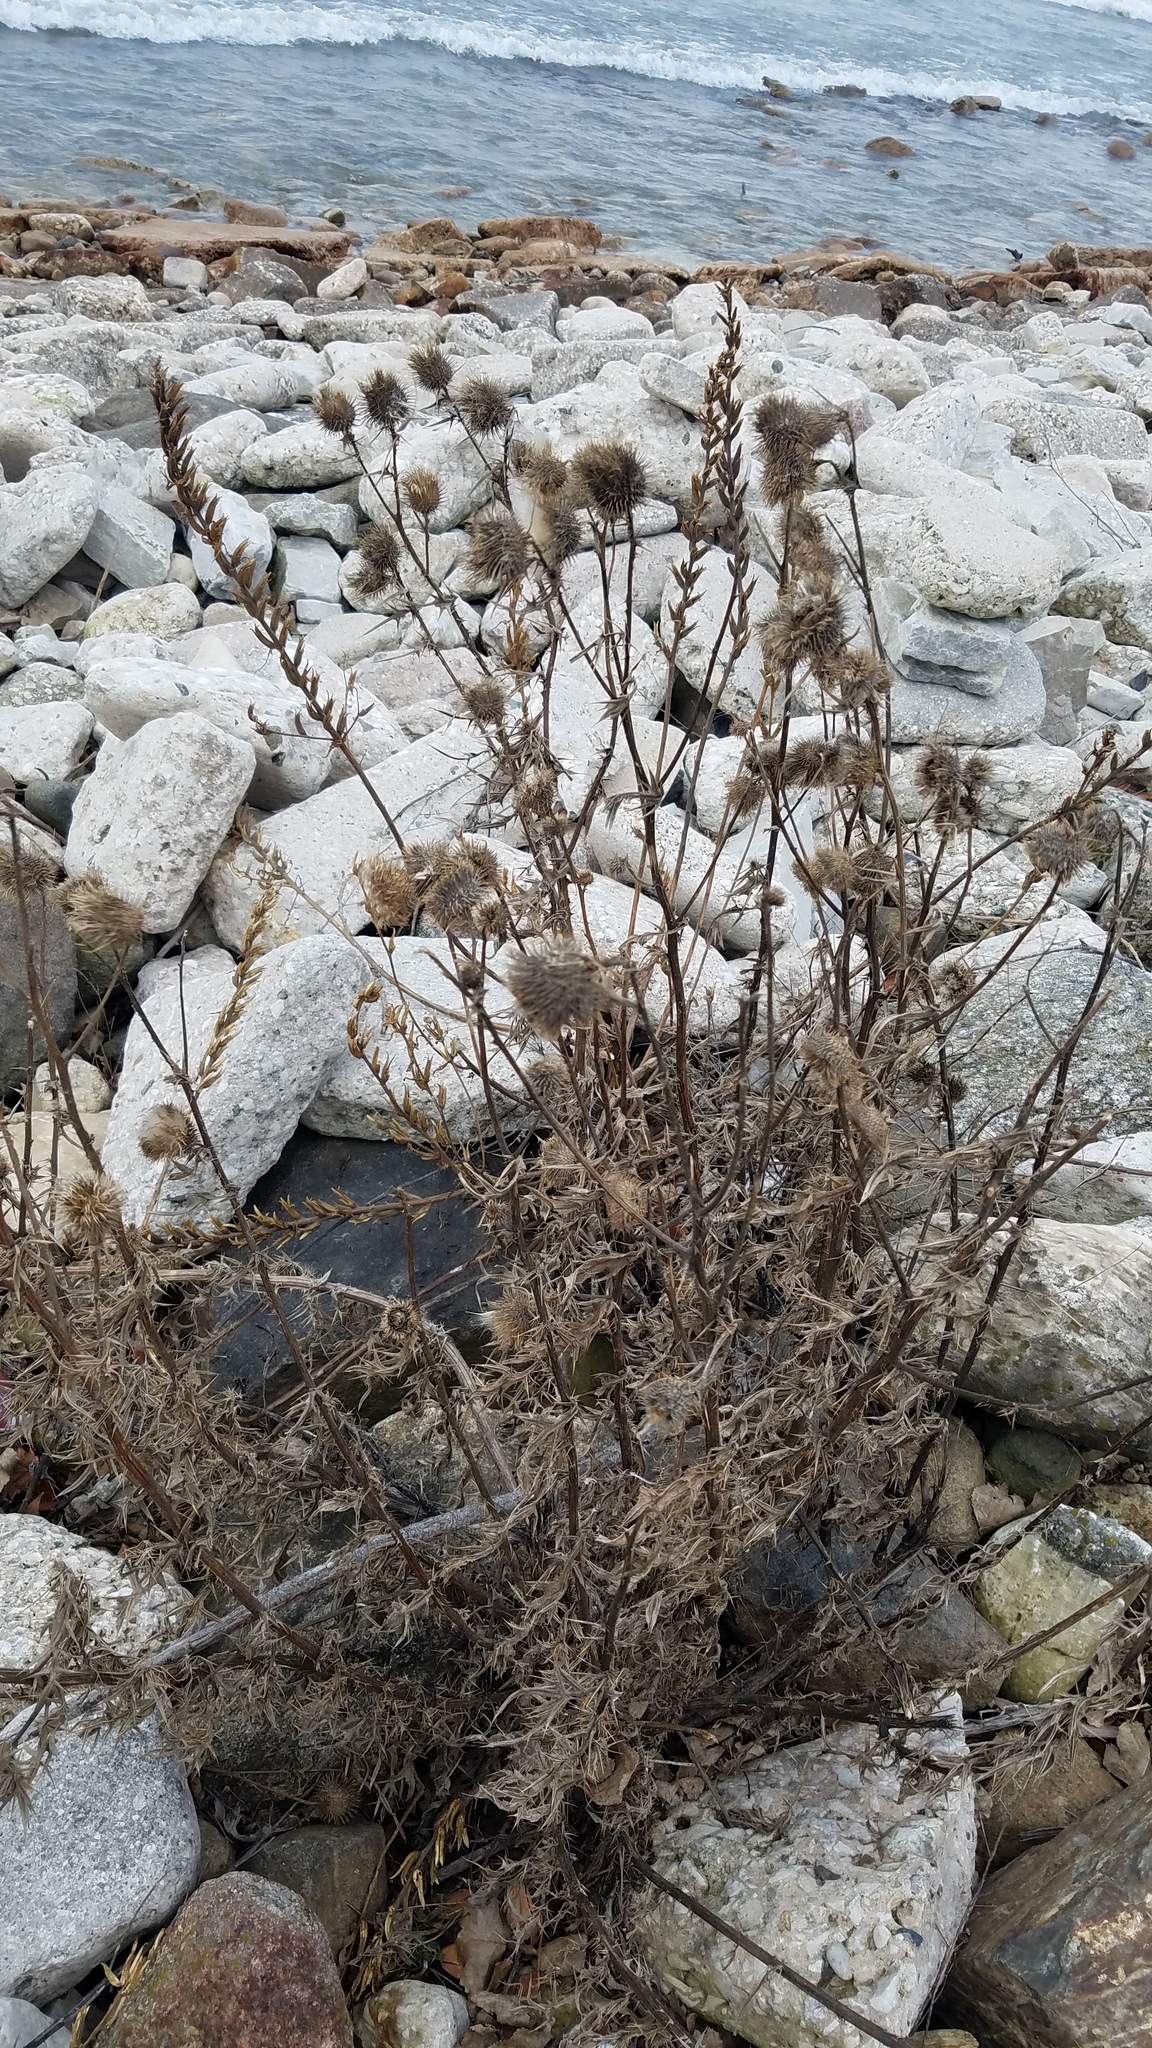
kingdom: Plantae
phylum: Tracheophyta
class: Magnoliopsida
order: Asterales
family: Asteraceae
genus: Cirsium
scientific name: Cirsium vulgare
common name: Bull thistle
